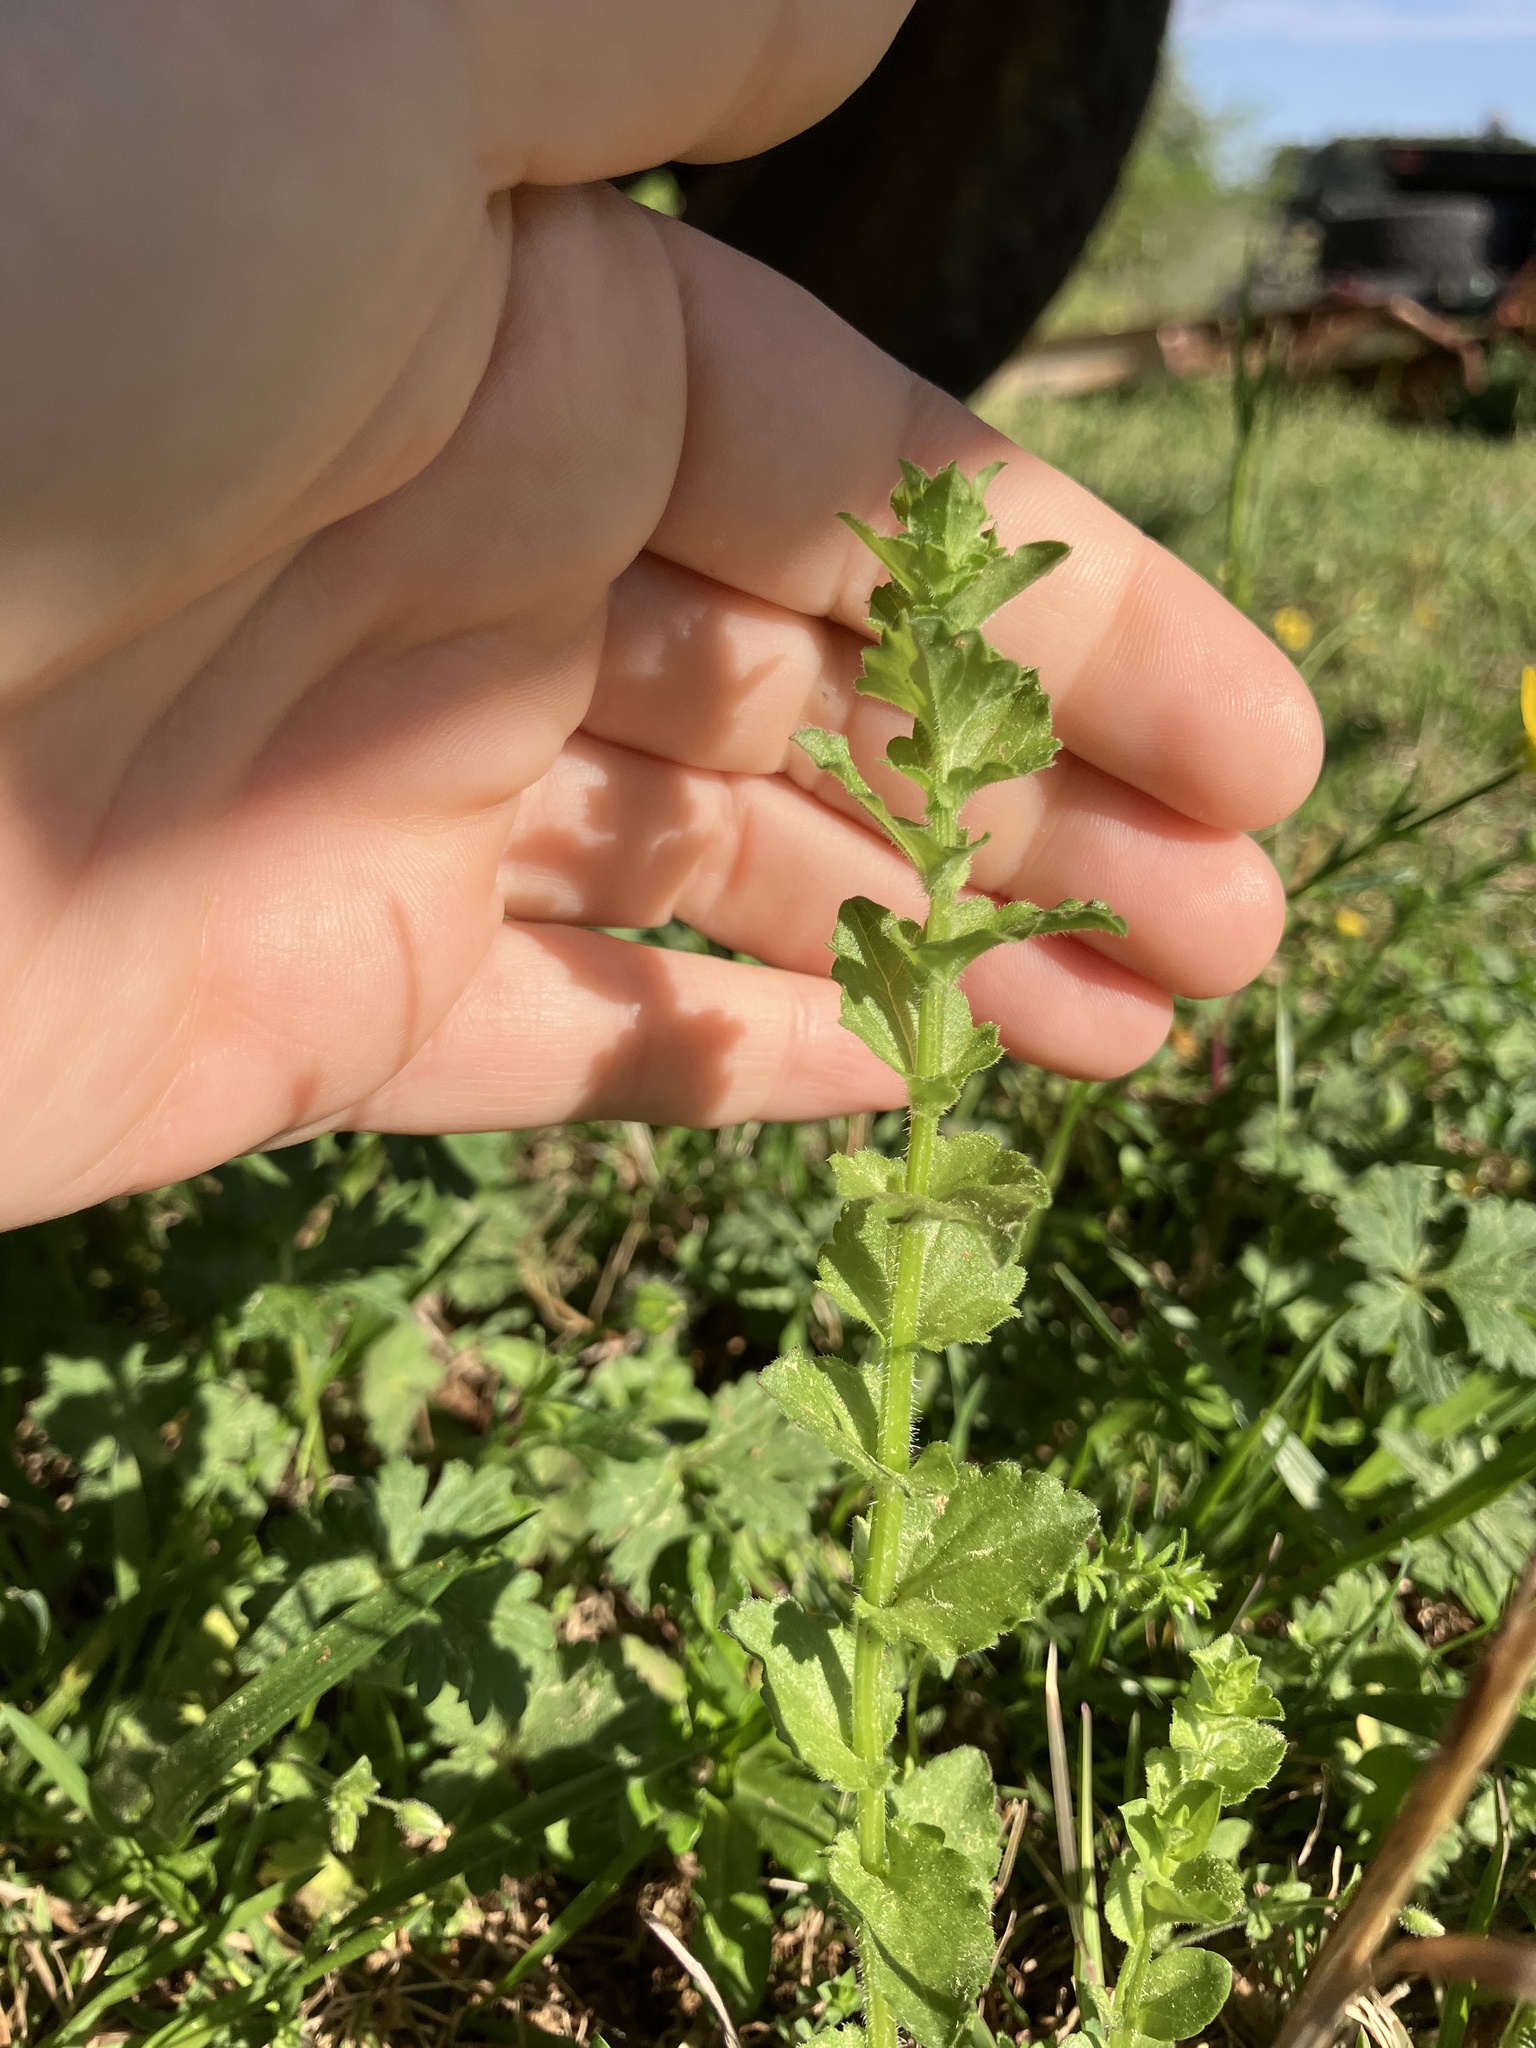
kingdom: Plantae
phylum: Tracheophyta
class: Magnoliopsida
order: Asterales
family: Campanulaceae
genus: Triodanis
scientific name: Triodanis perfoliata
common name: Clasping venus' looking-glass
